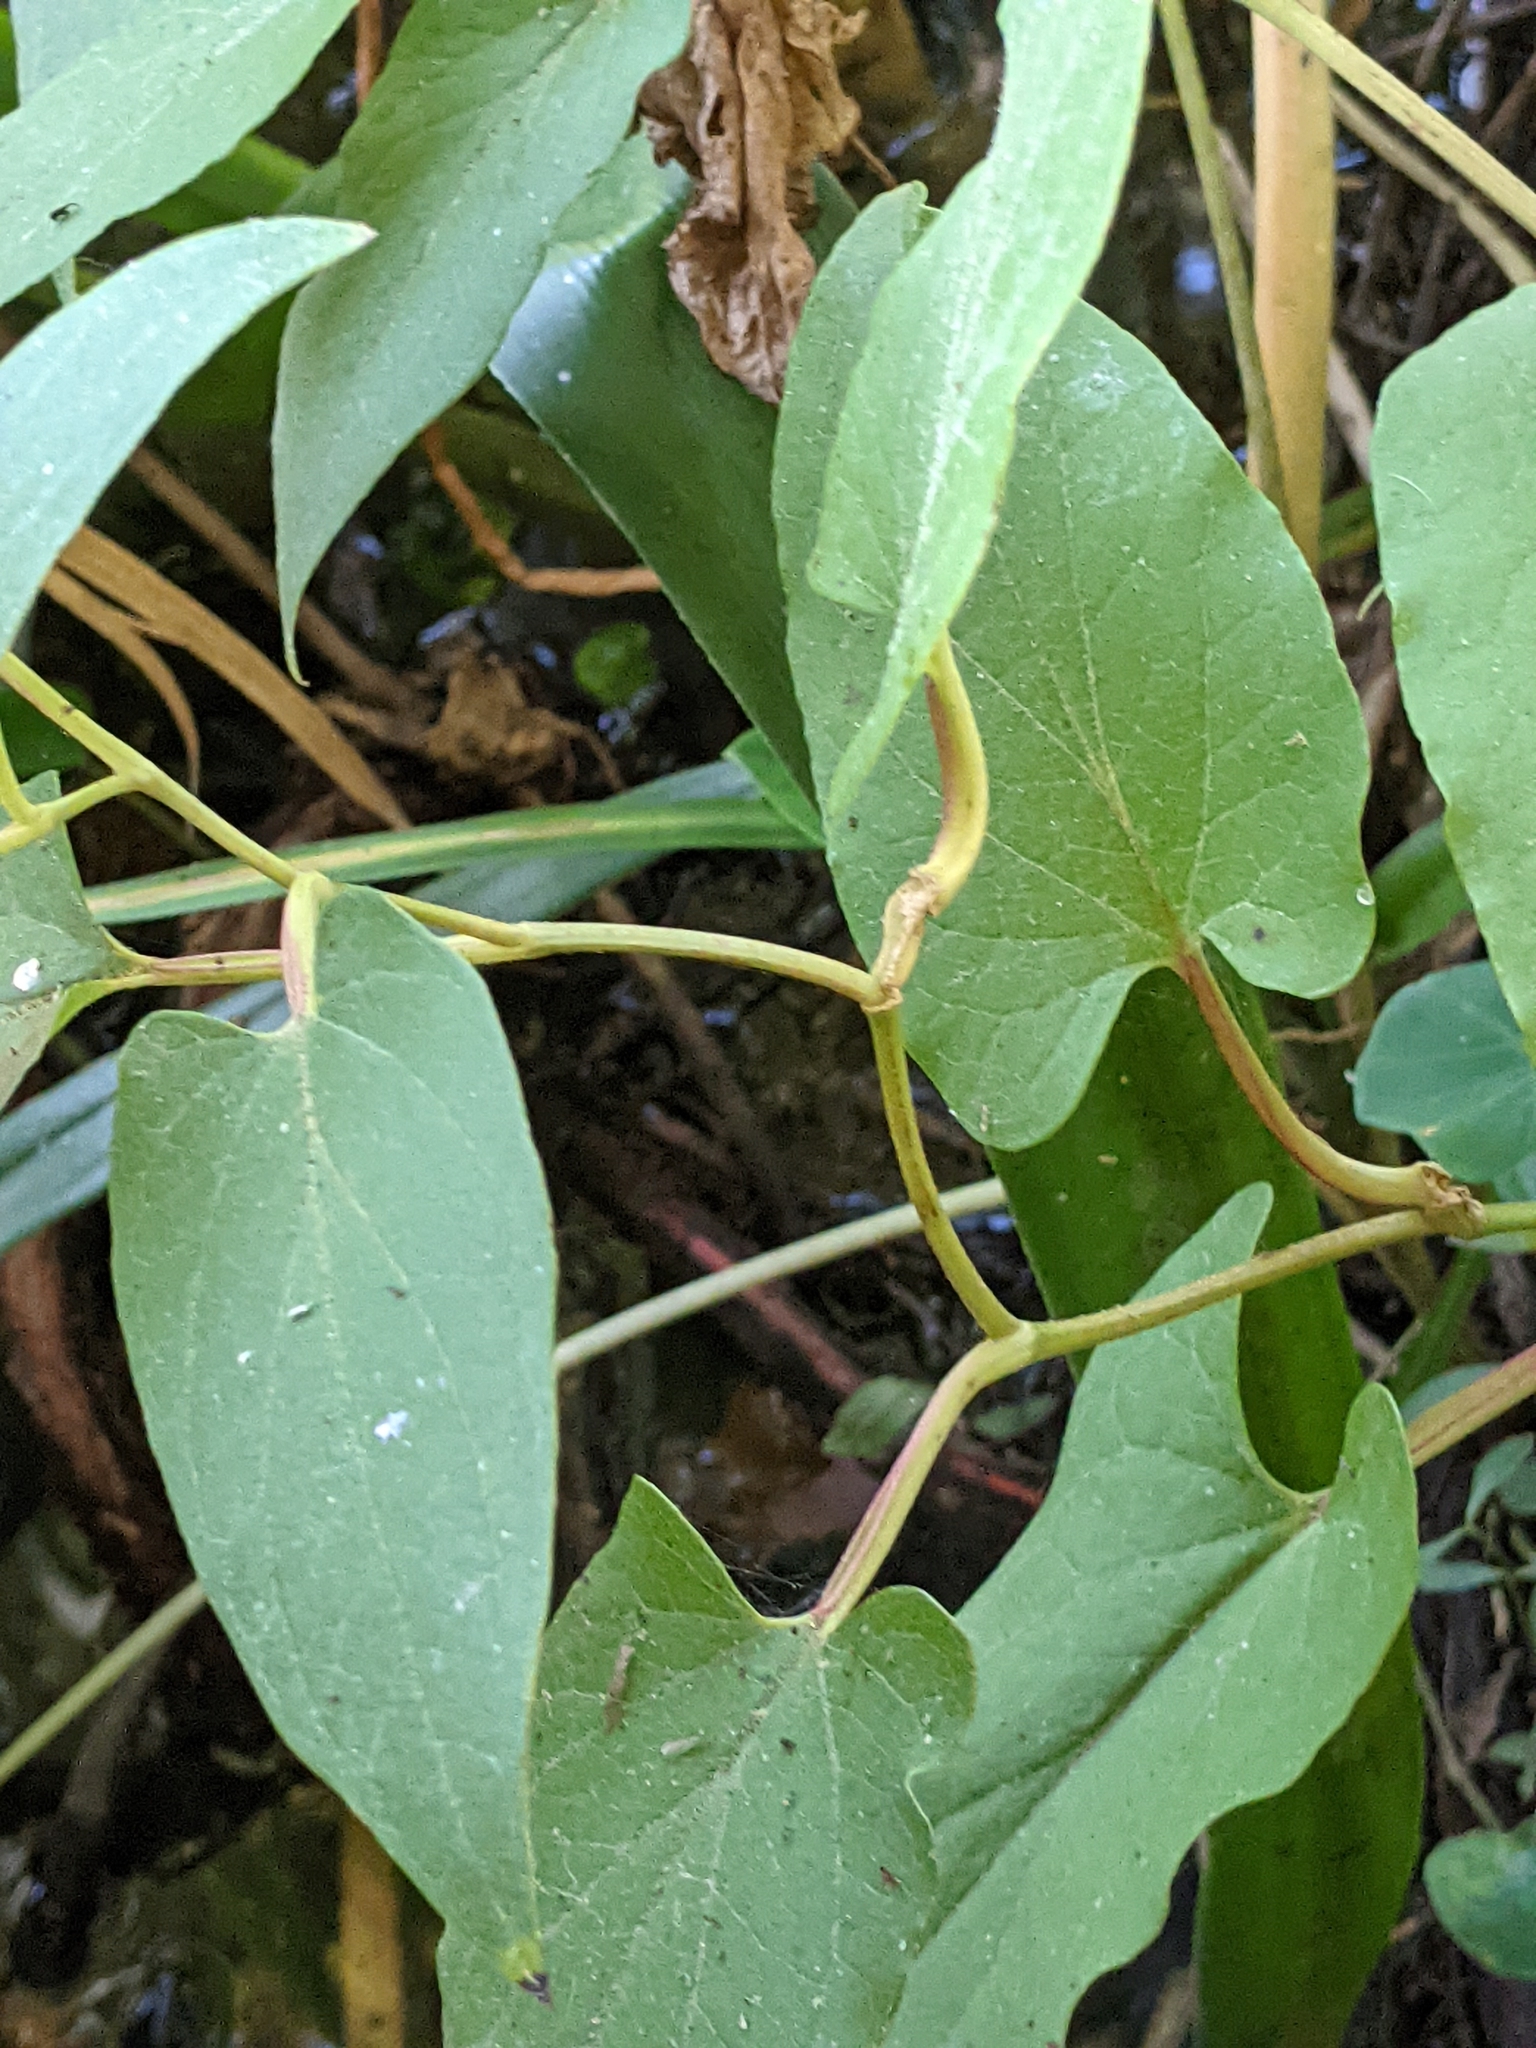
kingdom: Plantae
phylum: Tracheophyta
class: Magnoliopsida
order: Piperales
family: Saururaceae
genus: Saururus
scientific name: Saururus cernuus
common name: Lizard's-tail
